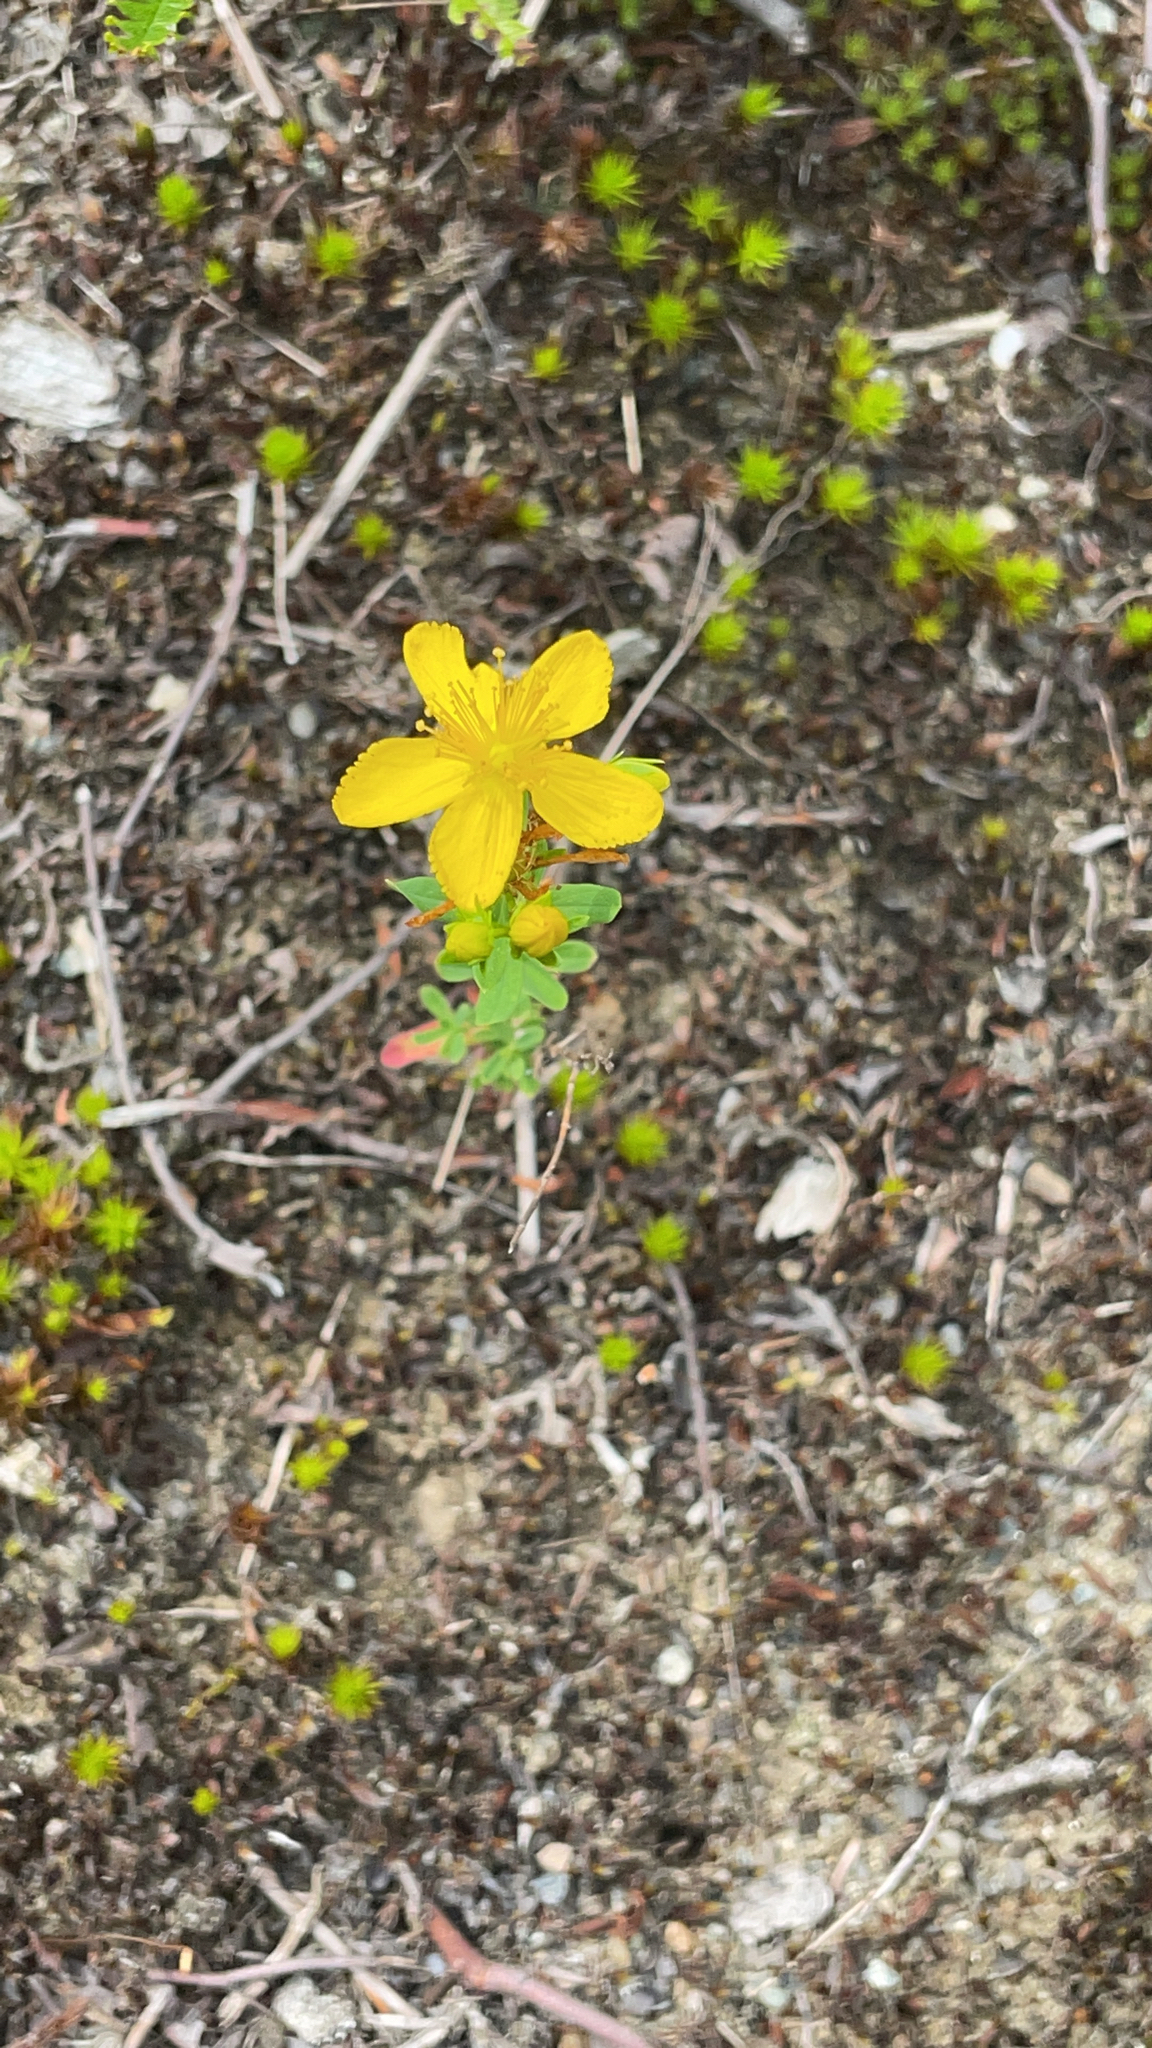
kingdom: Plantae
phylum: Tracheophyta
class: Magnoliopsida
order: Malpighiales
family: Hypericaceae
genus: Hypericum
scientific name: Hypericum perforatum
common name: Common st. johnswort
